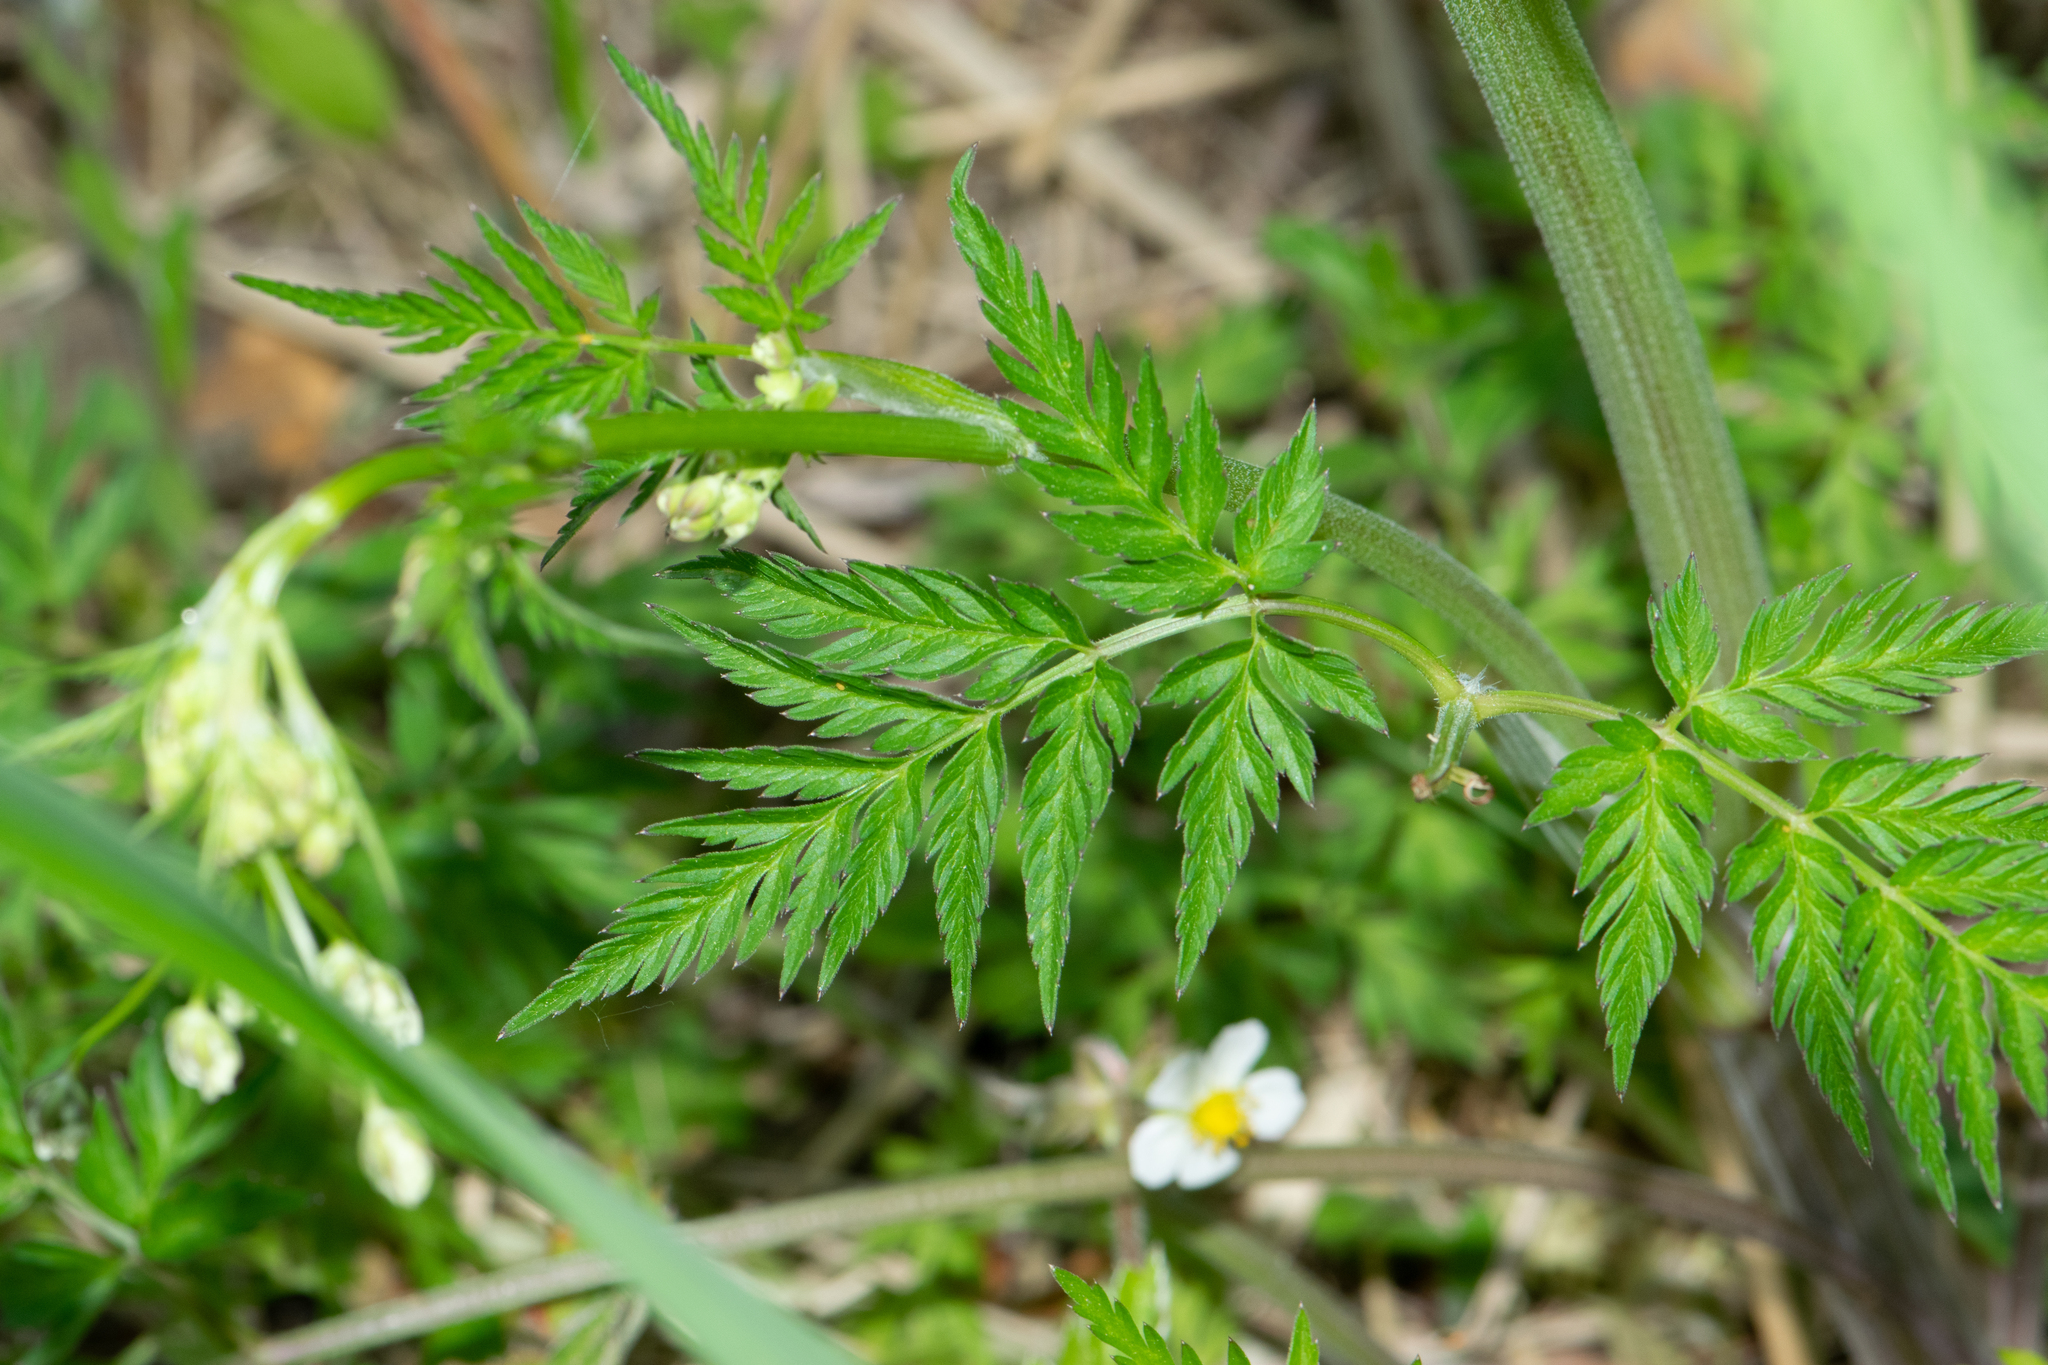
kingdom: Plantae
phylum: Tracheophyta
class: Magnoliopsida
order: Apiales
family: Apiaceae
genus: Anthriscus
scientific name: Anthriscus sylvestris
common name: Cow parsley
